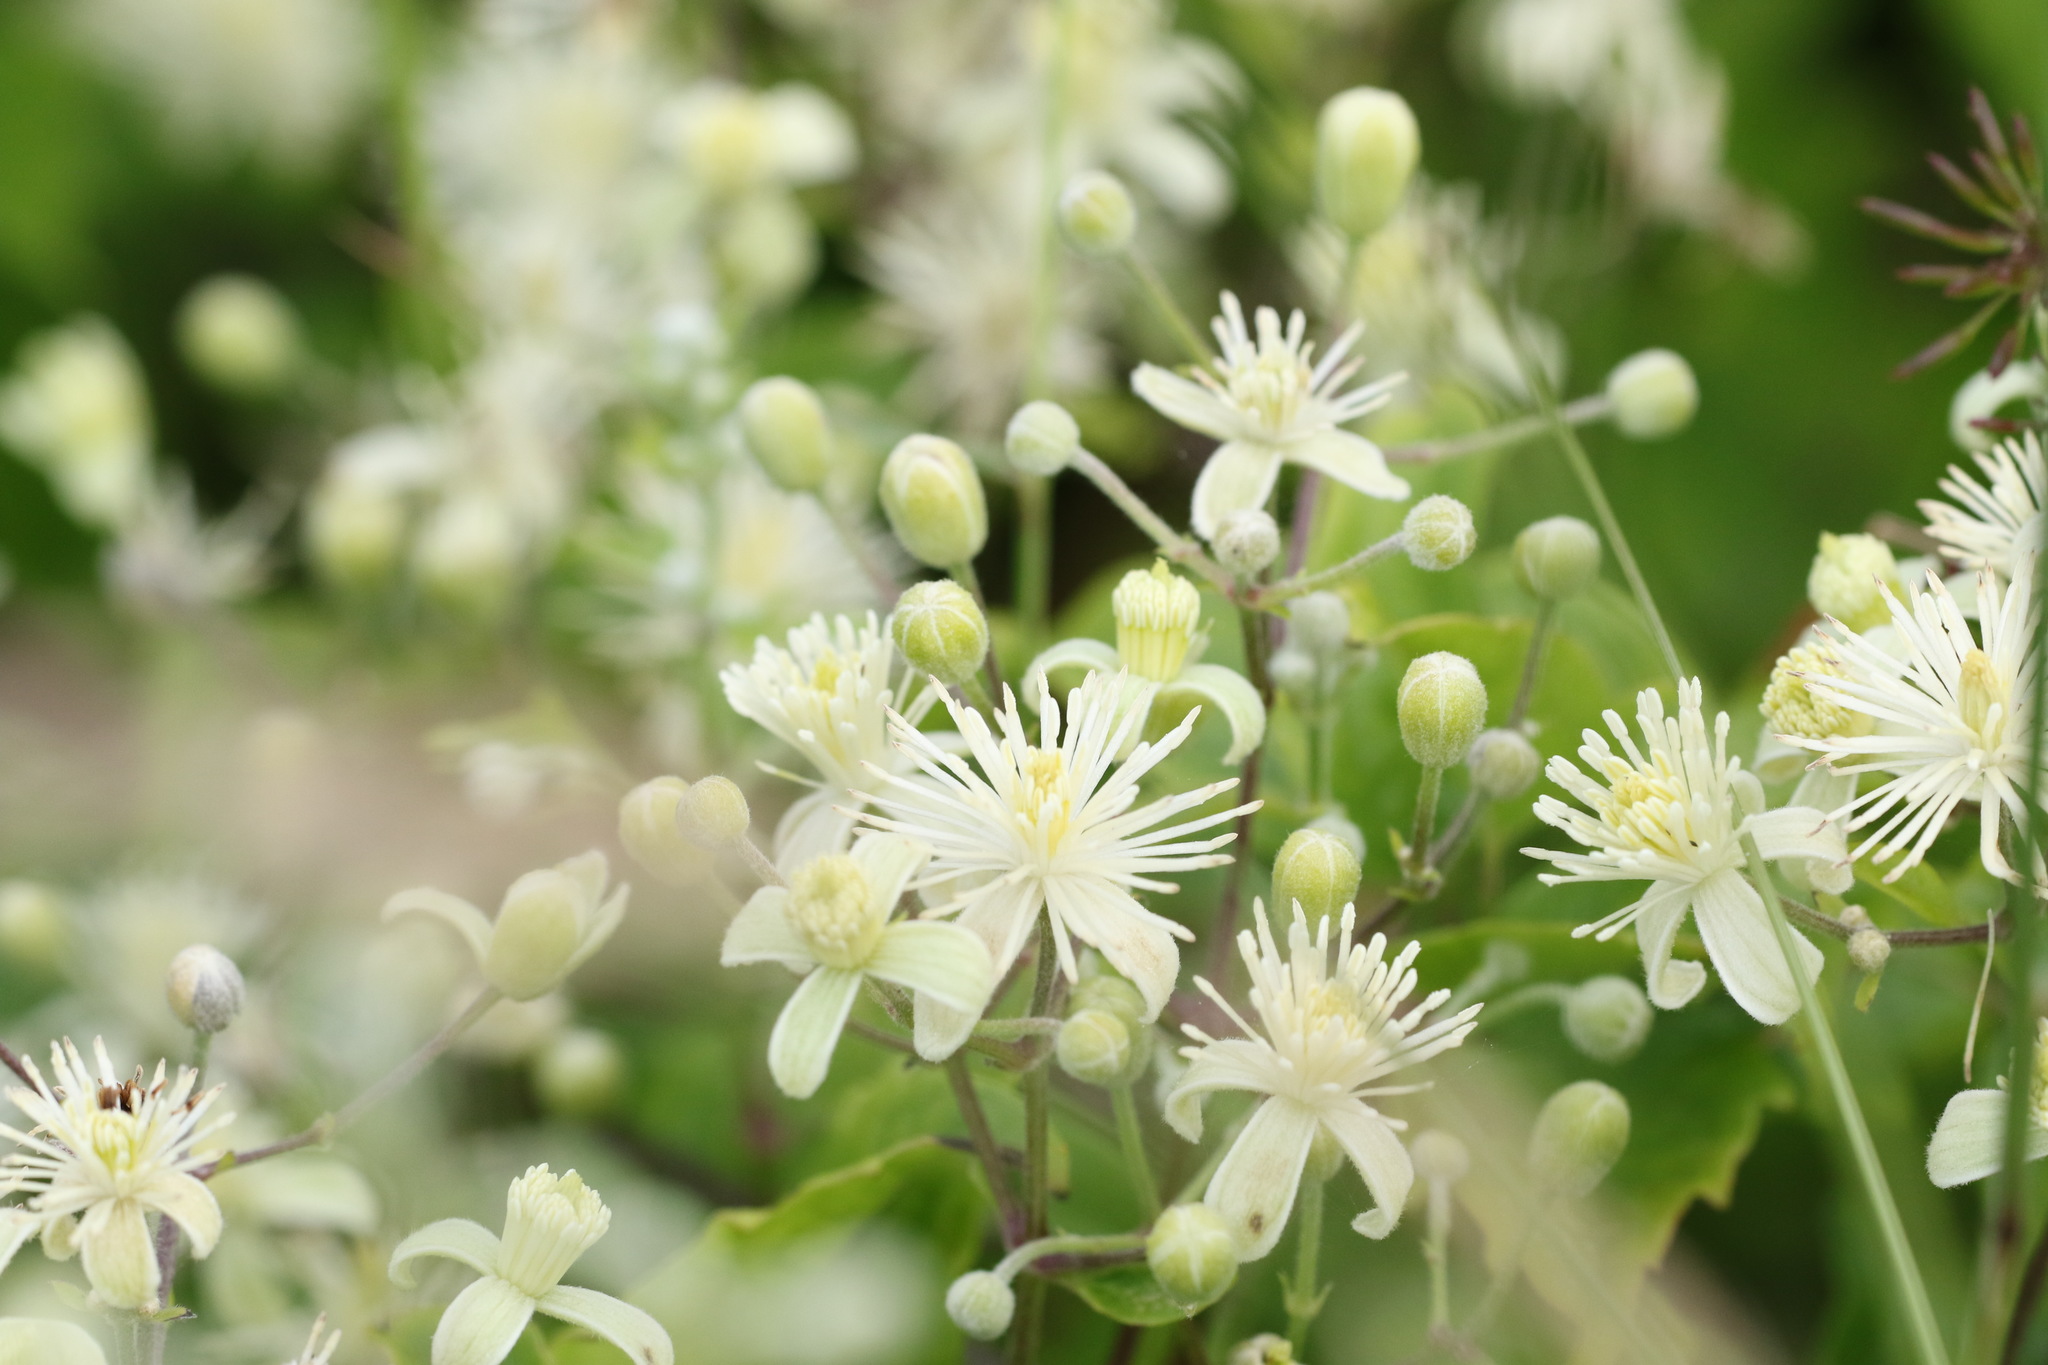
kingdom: Plantae
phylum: Tracheophyta
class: Magnoliopsida
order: Ranunculales
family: Ranunculaceae
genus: Clematis
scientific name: Clematis vitalba
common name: Evergreen clematis
